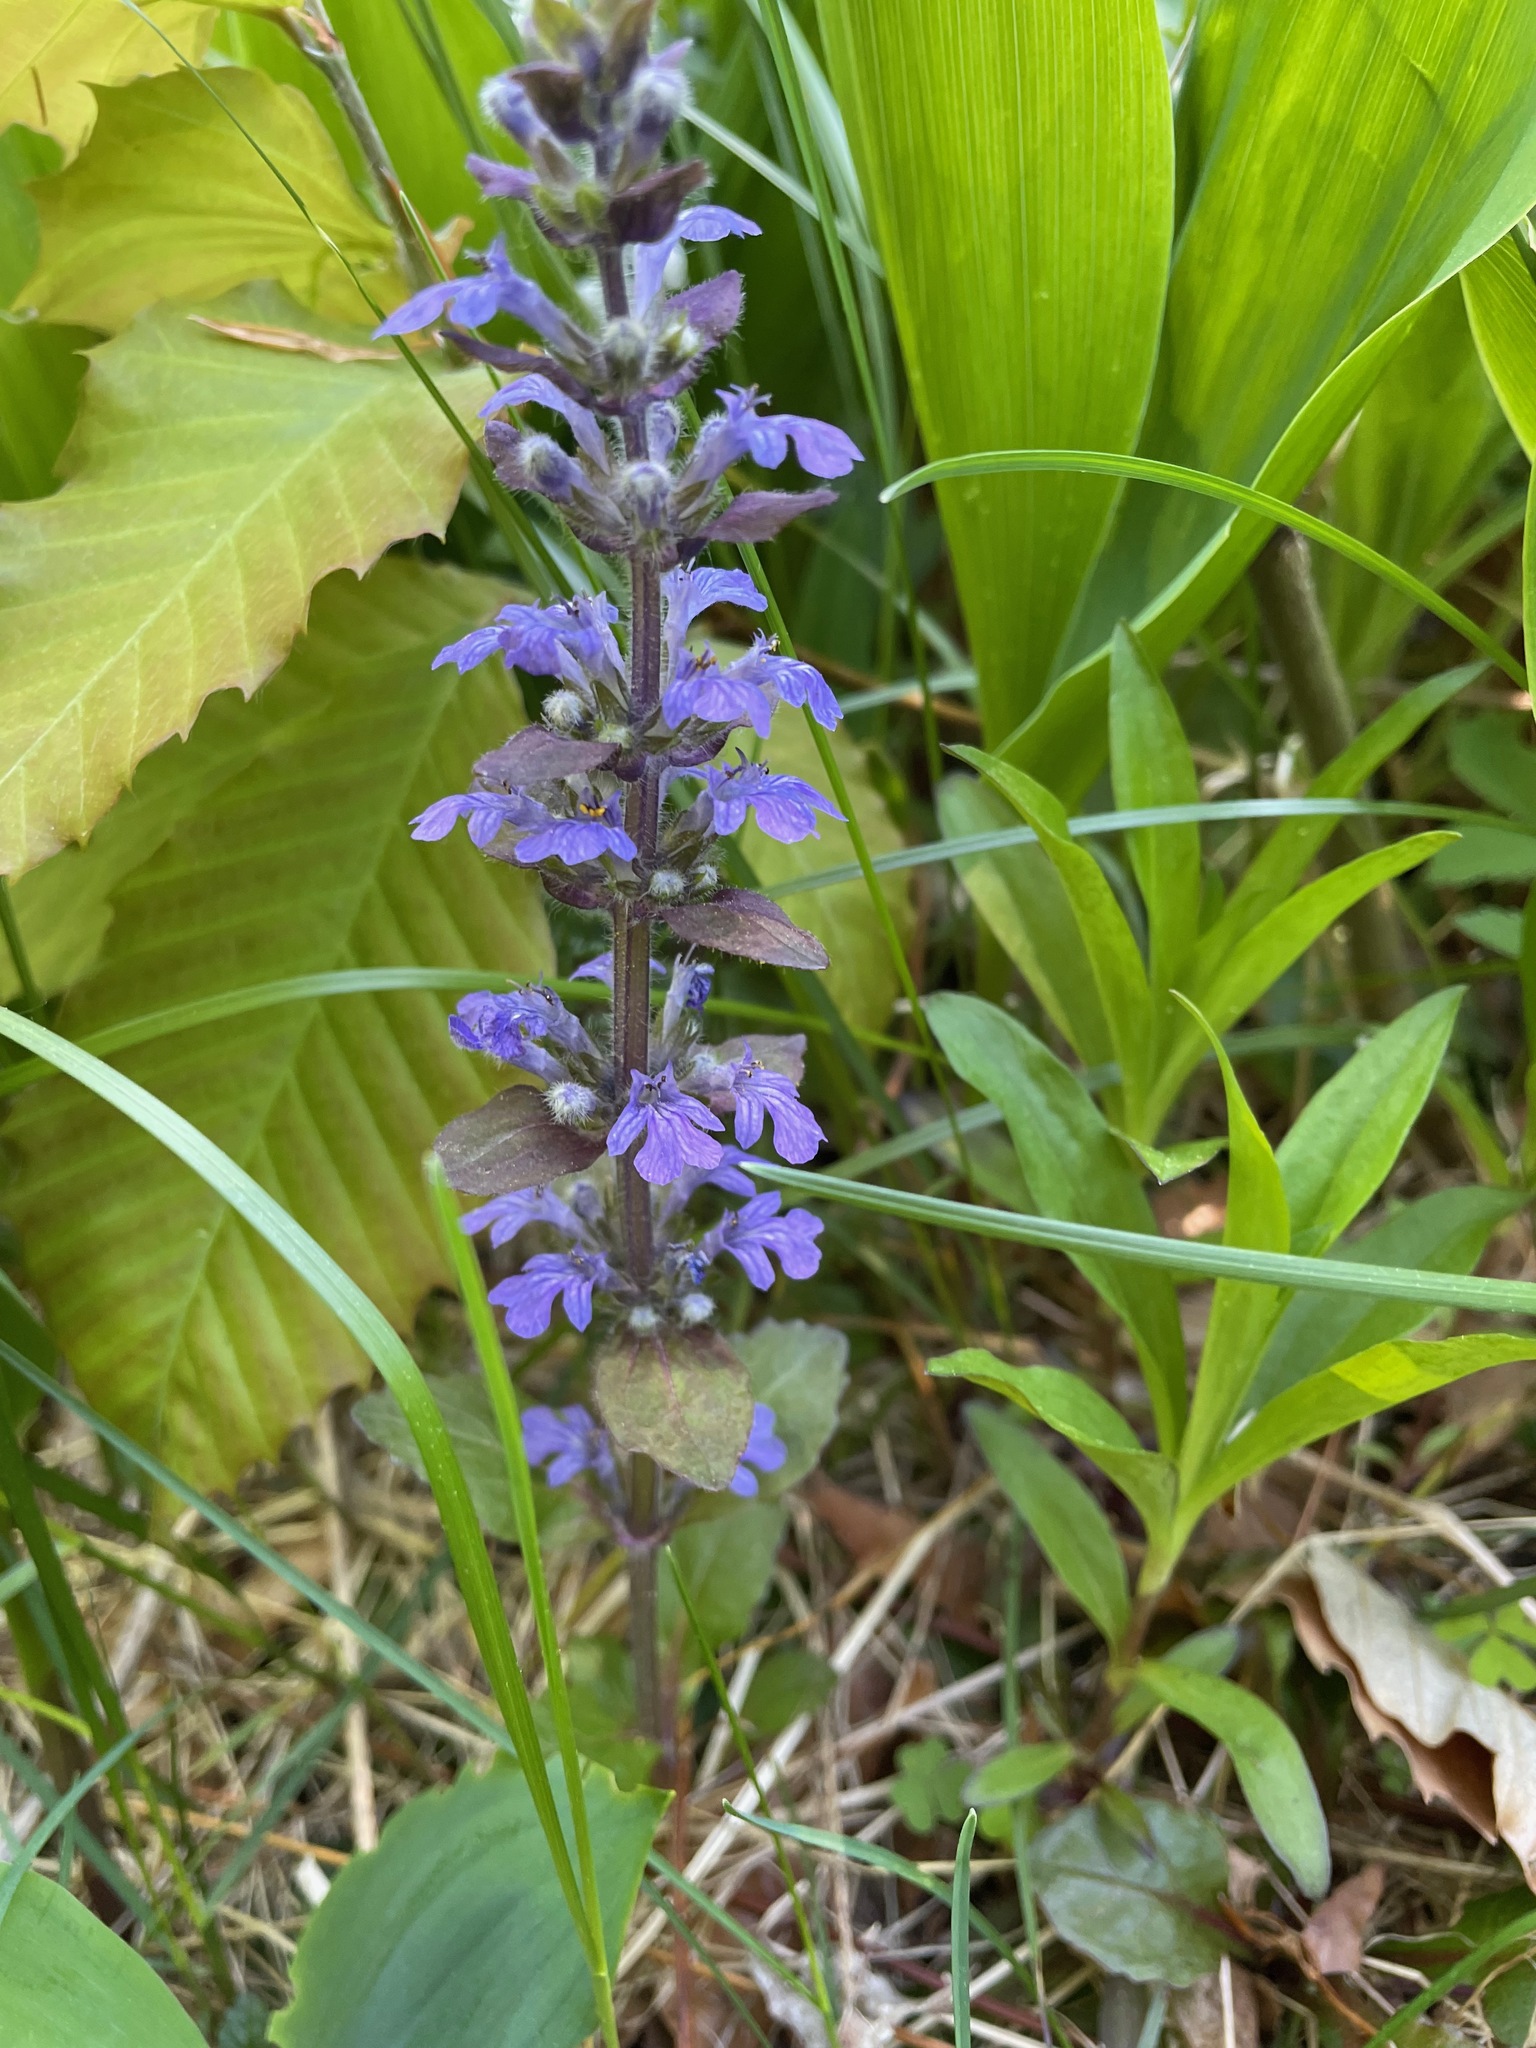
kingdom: Plantae
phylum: Tracheophyta
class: Magnoliopsida
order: Lamiales
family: Lamiaceae
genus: Ajuga
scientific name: Ajuga reptans
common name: Bugle
